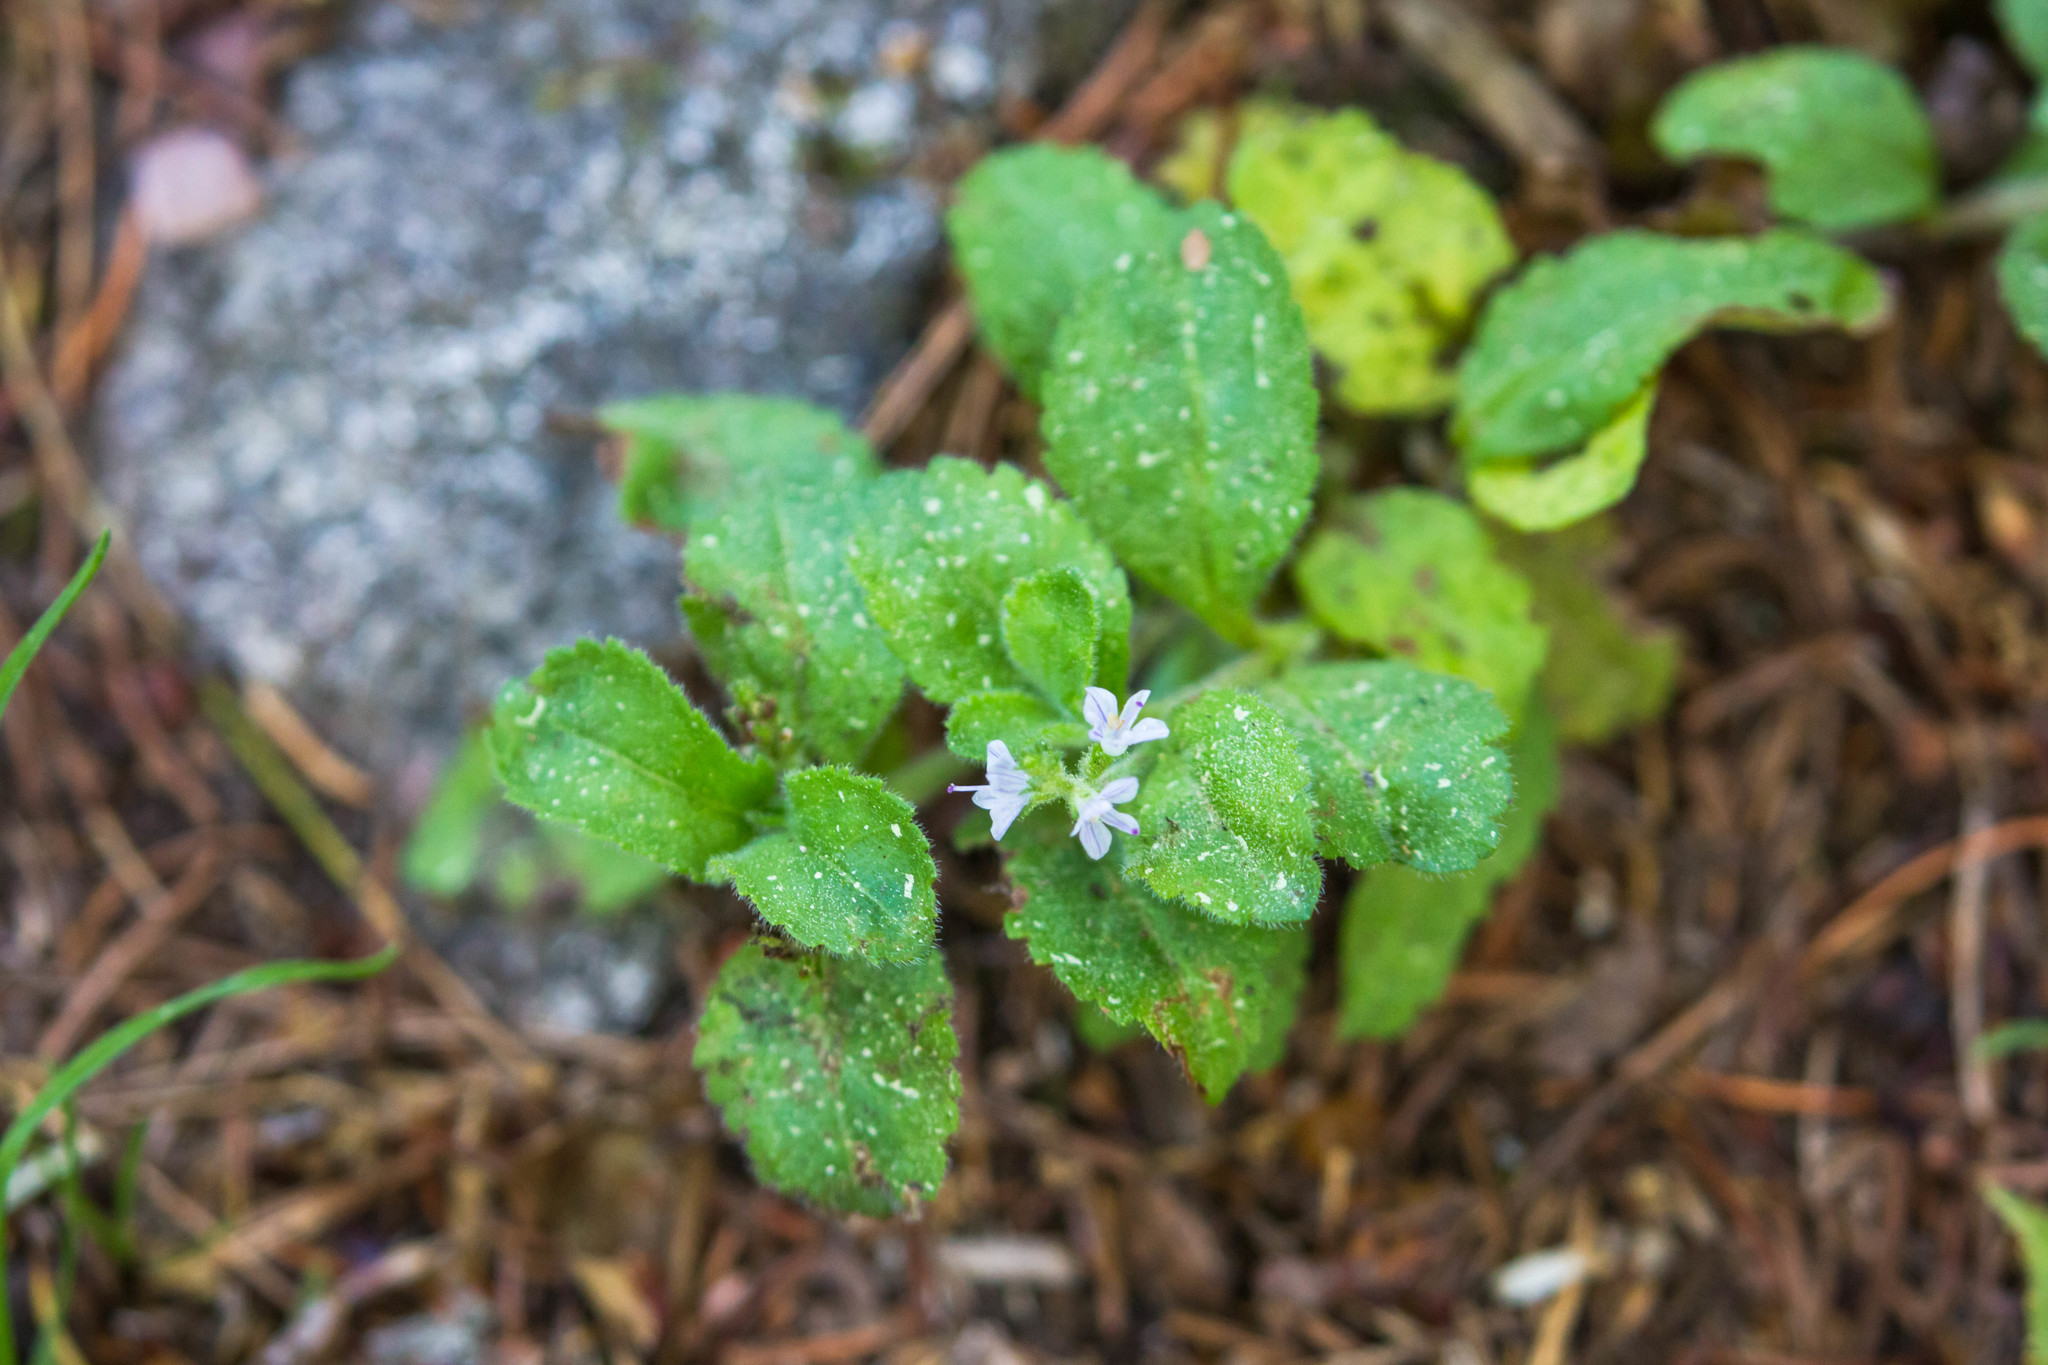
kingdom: Plantae
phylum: Tracheophyta
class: Magnoliopsida
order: Lamiales
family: Plantaginaceae
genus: Veronica
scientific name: Veronica officinalis
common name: Common speedwell
